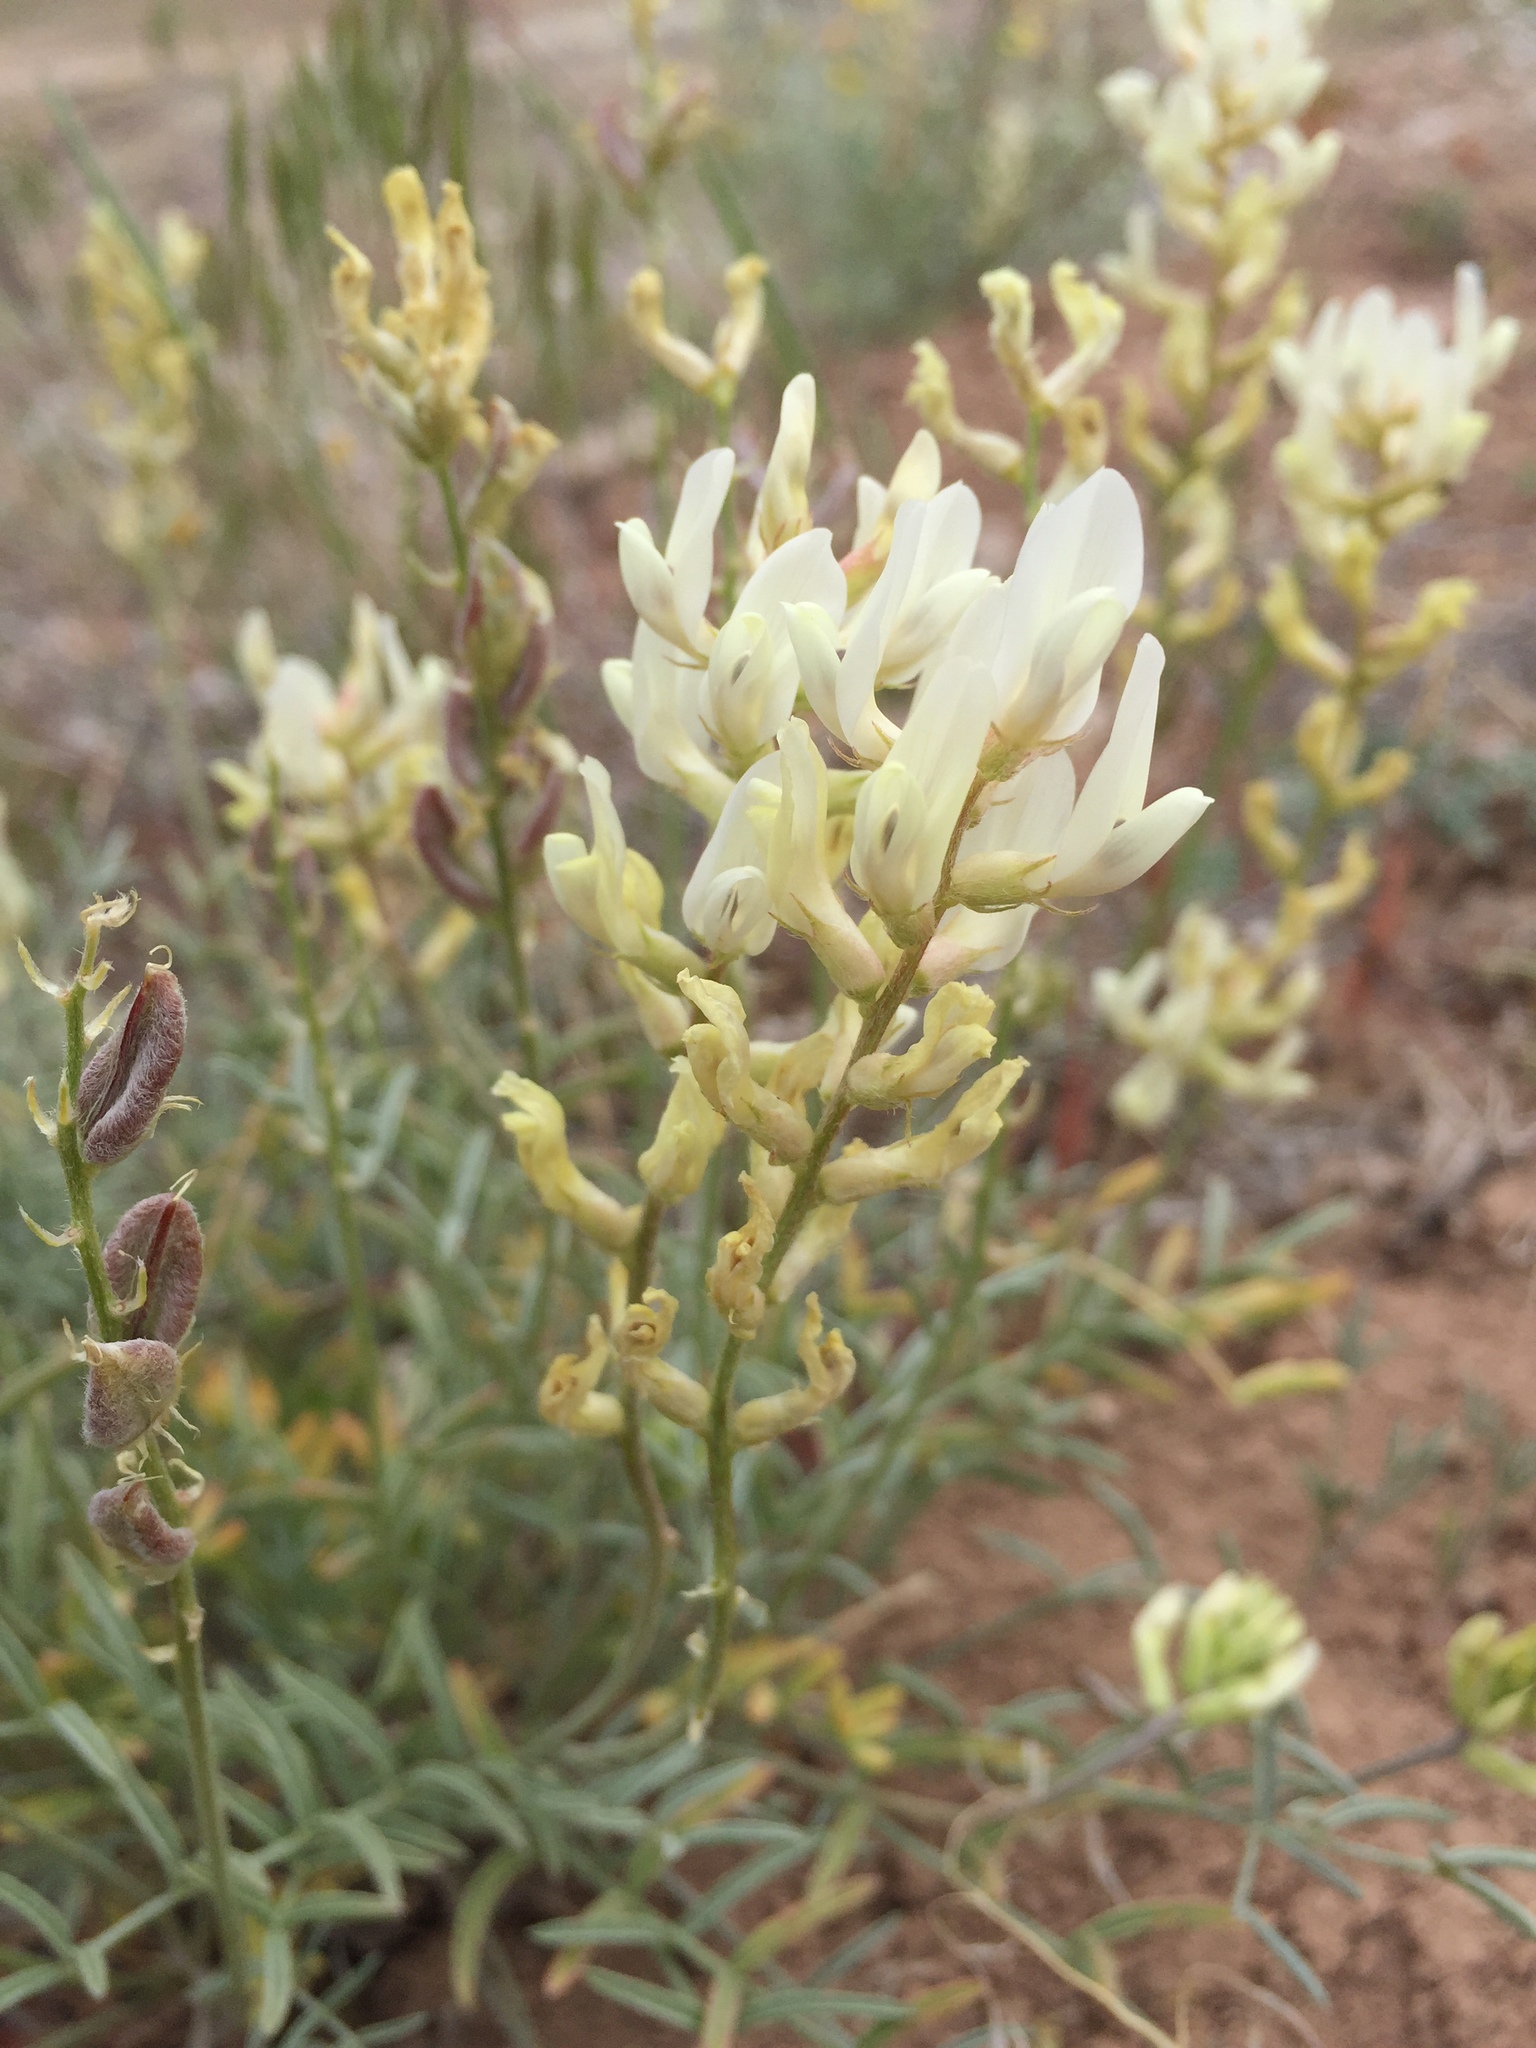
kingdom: Plantae
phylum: Tracheophyta
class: Magnoliopsida
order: Fabales
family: Fabaceae
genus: Astragalus
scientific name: Astragalus flavus
